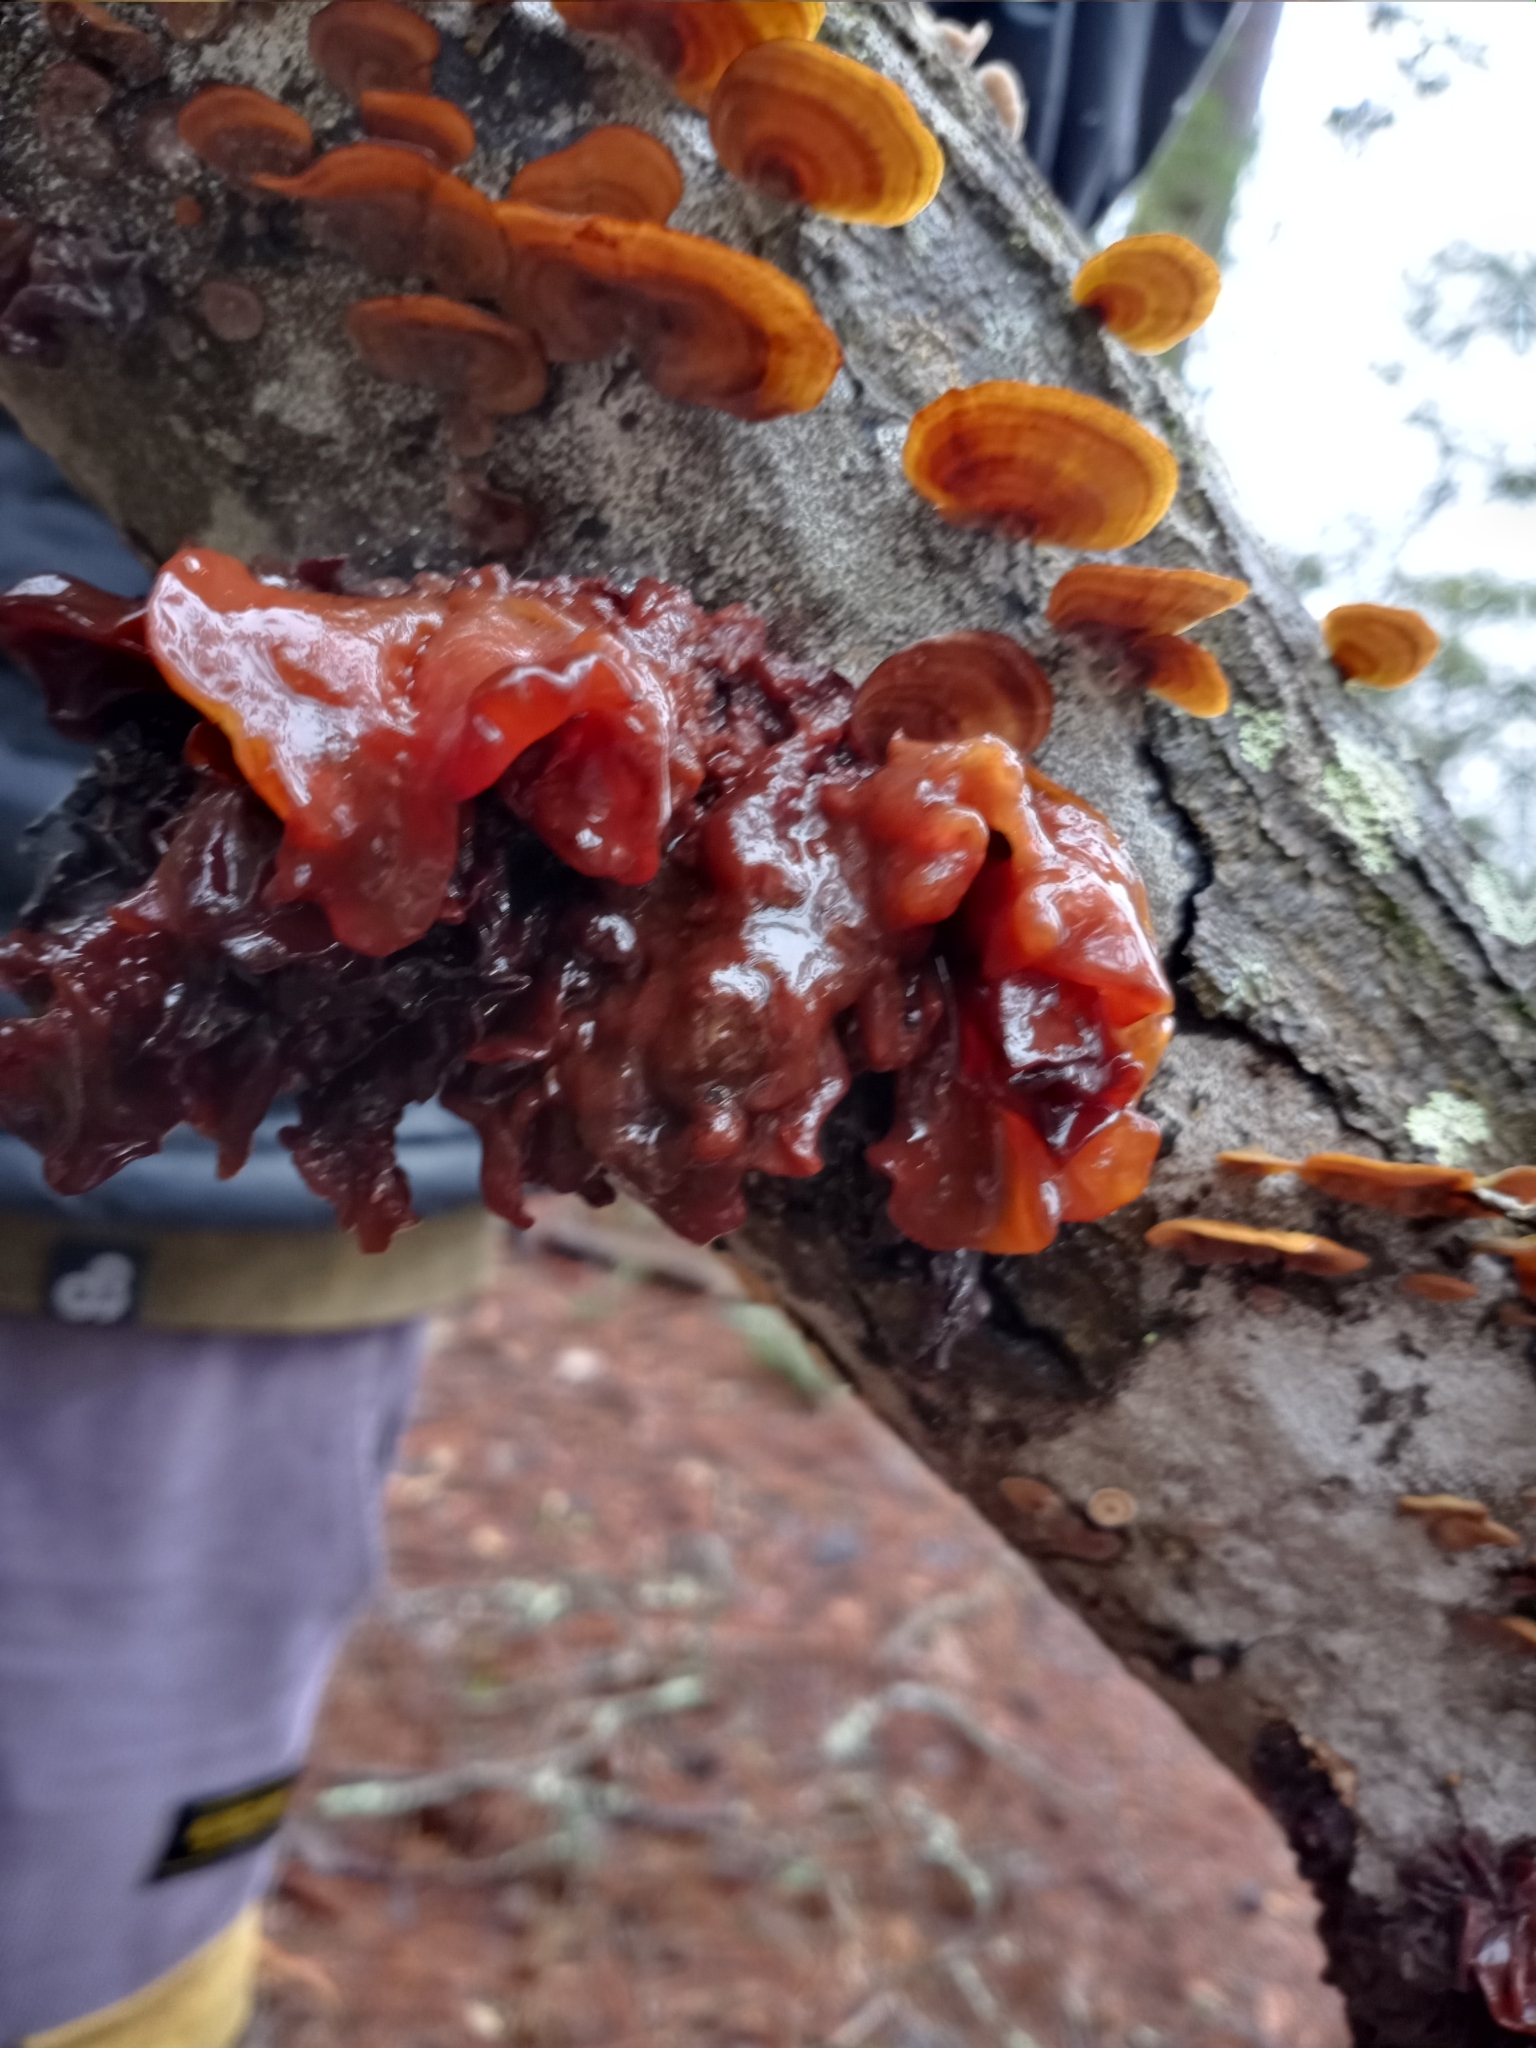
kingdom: Fungi
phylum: Basidiomycota
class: Tremellomycetes
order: Tremellales
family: Tremellaceae
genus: Phaeotremella
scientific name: Phaeotremella foliacea
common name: Leafy brain
